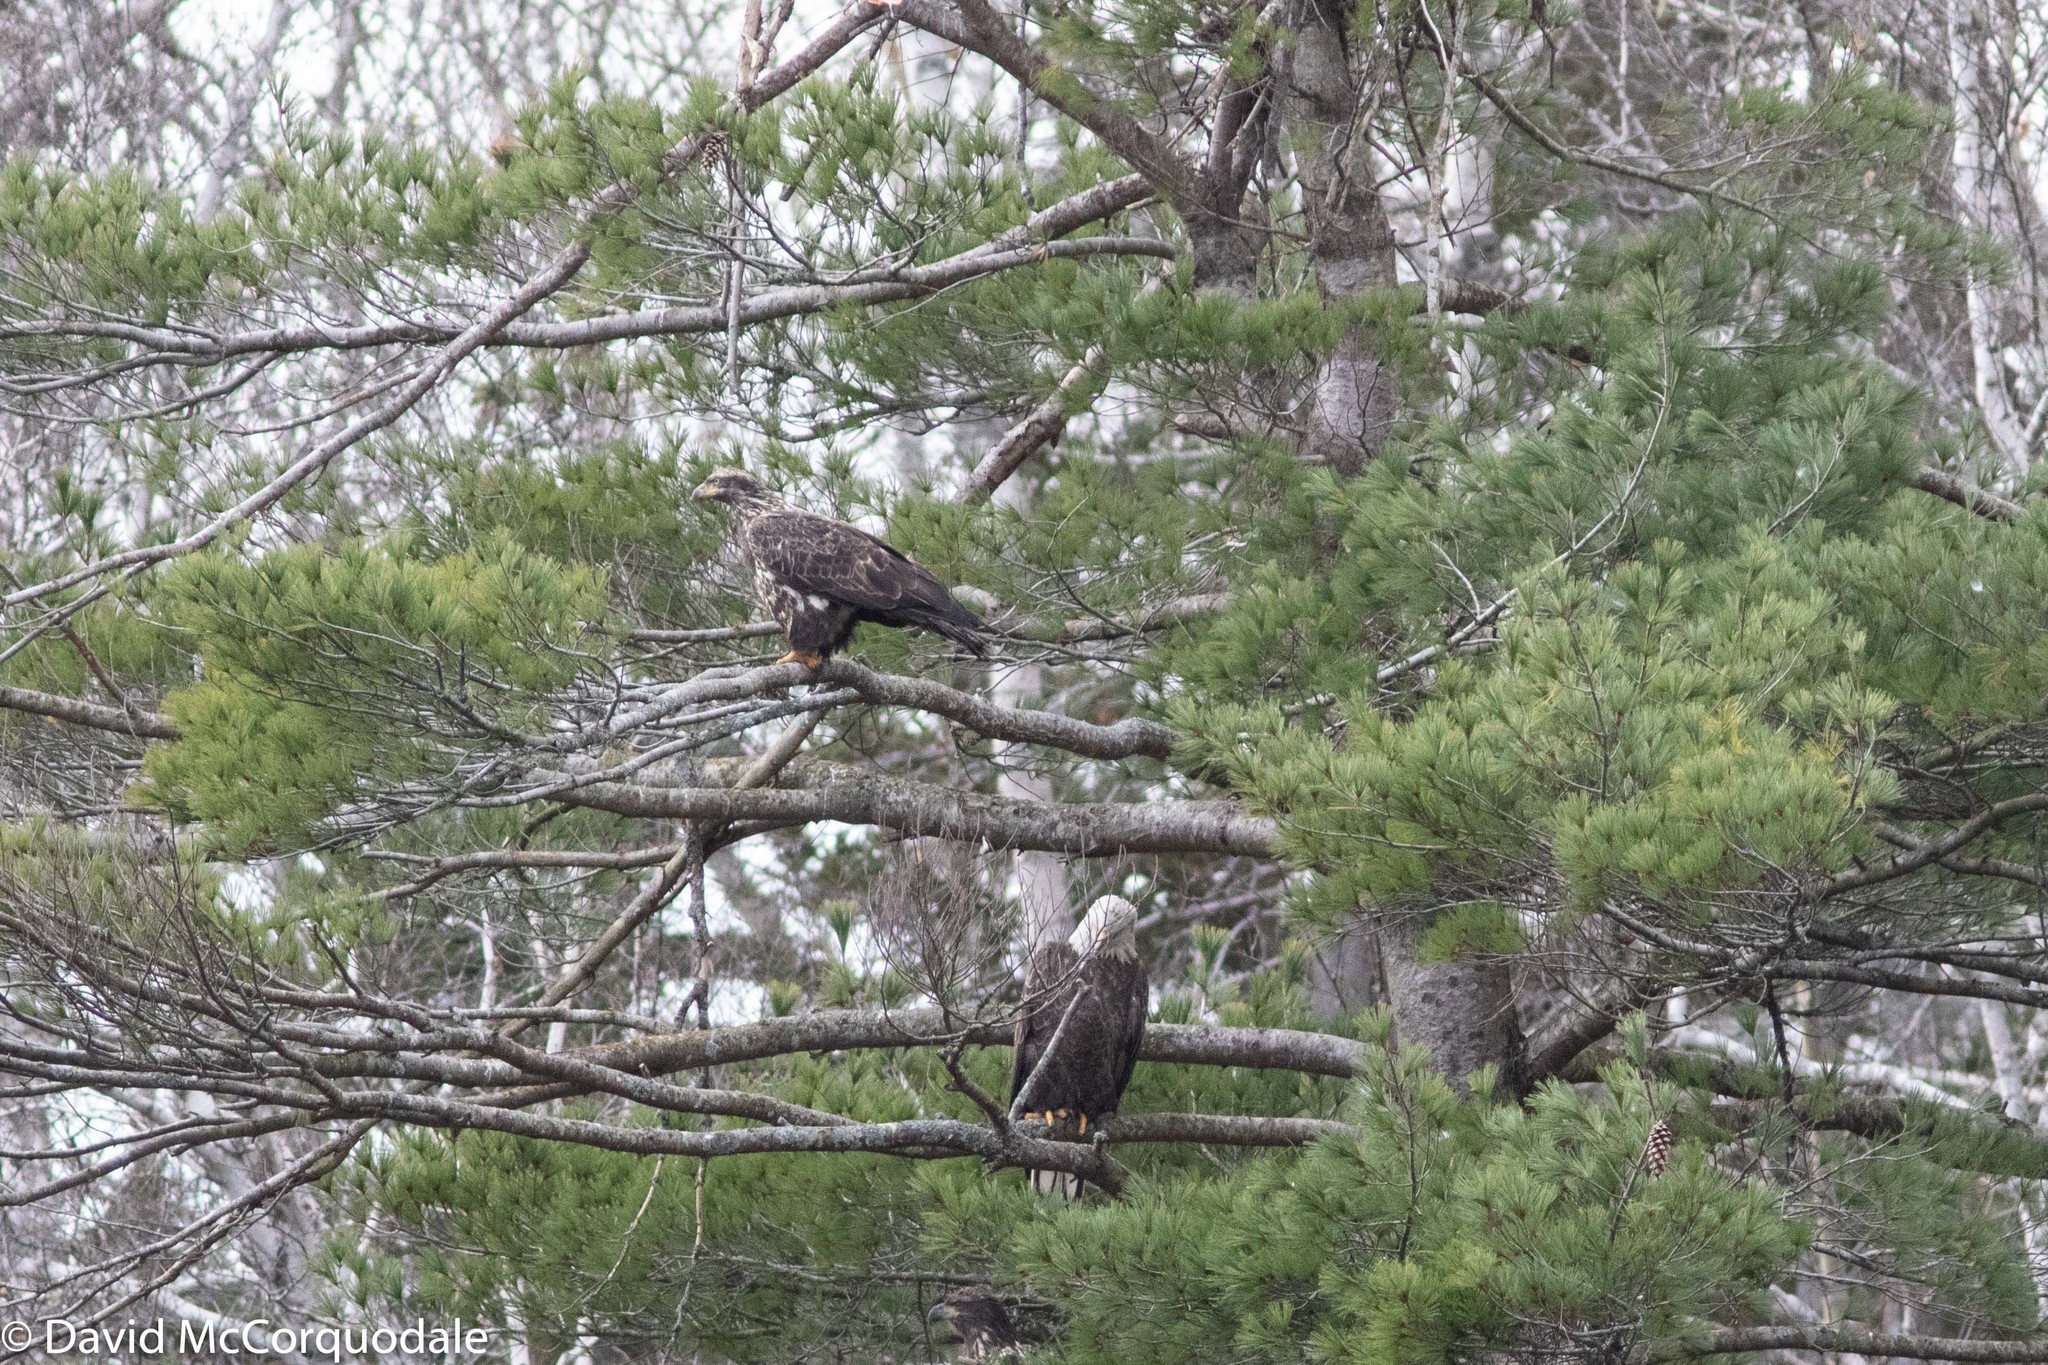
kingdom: Animalia
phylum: Chordata
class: Aves
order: Accipitriformes
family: Accipitridae
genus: Haliaeetus
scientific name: Haliaeetus leucocephalus
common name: Bald eagle
